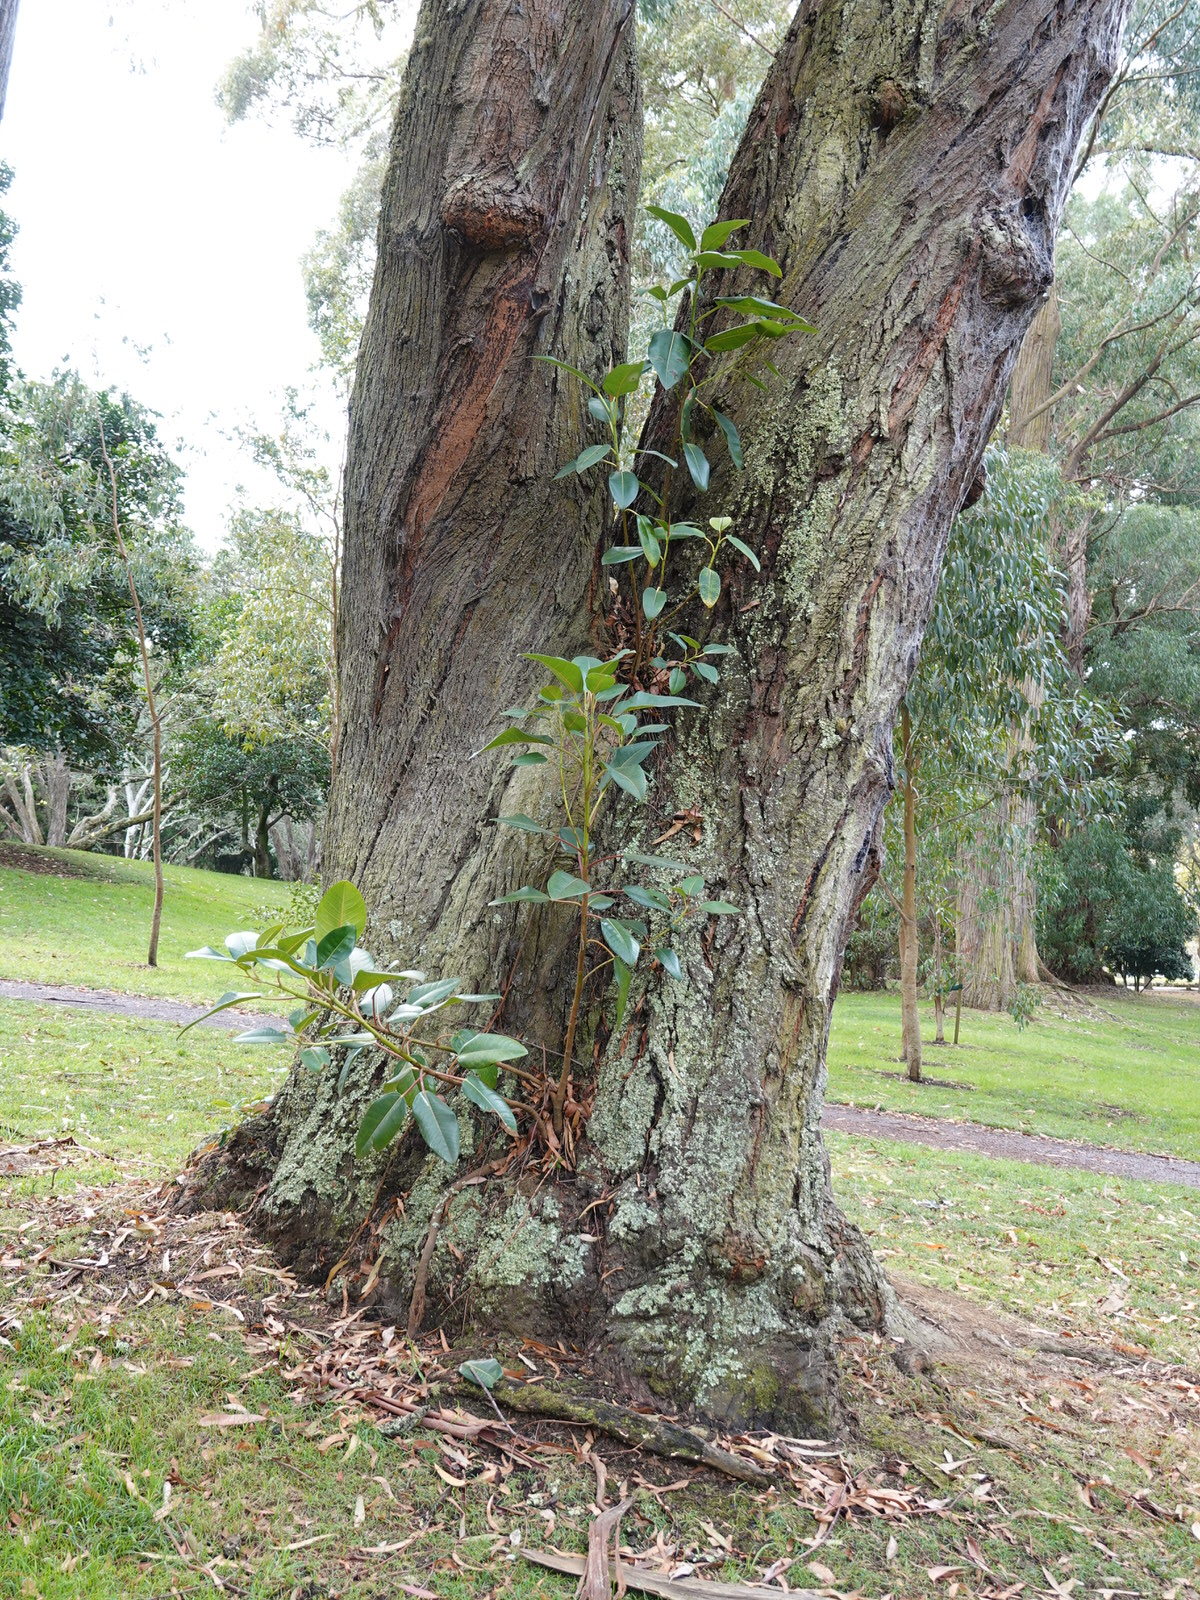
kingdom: Plantae
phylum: Tracheophyta
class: Magnoliopsida
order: Rosales
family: Moraceae
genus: Ficus
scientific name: Ficus macrophylla
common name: Moreton bay fig
